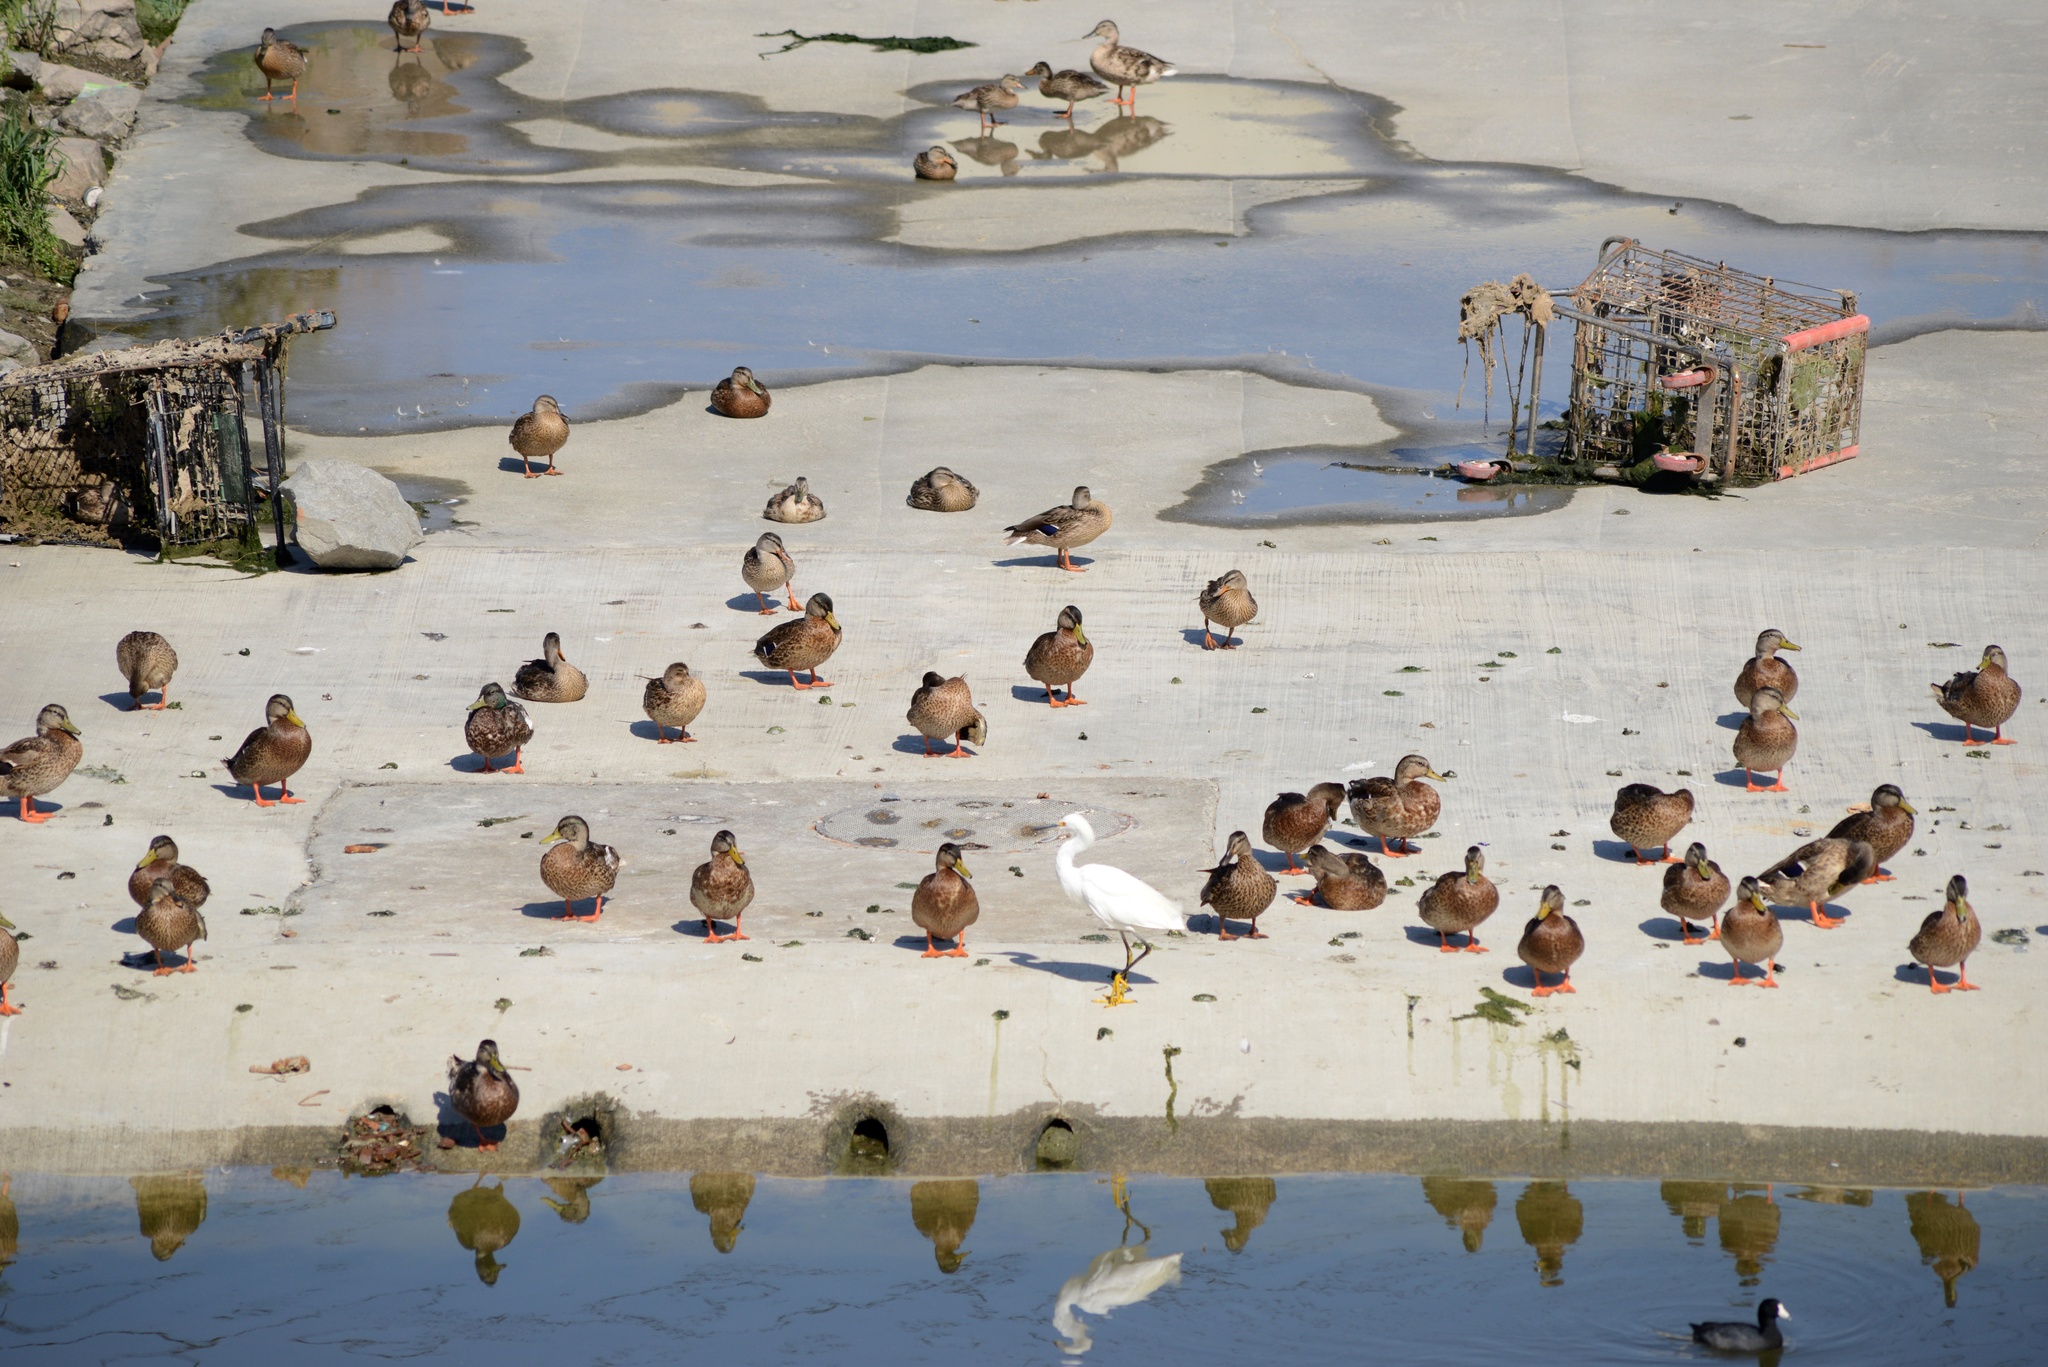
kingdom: Animalia
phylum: Chordata
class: Aves
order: Anseriformes
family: Anatidae
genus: Anas
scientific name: Anas platyrhynchos
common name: Mallard
